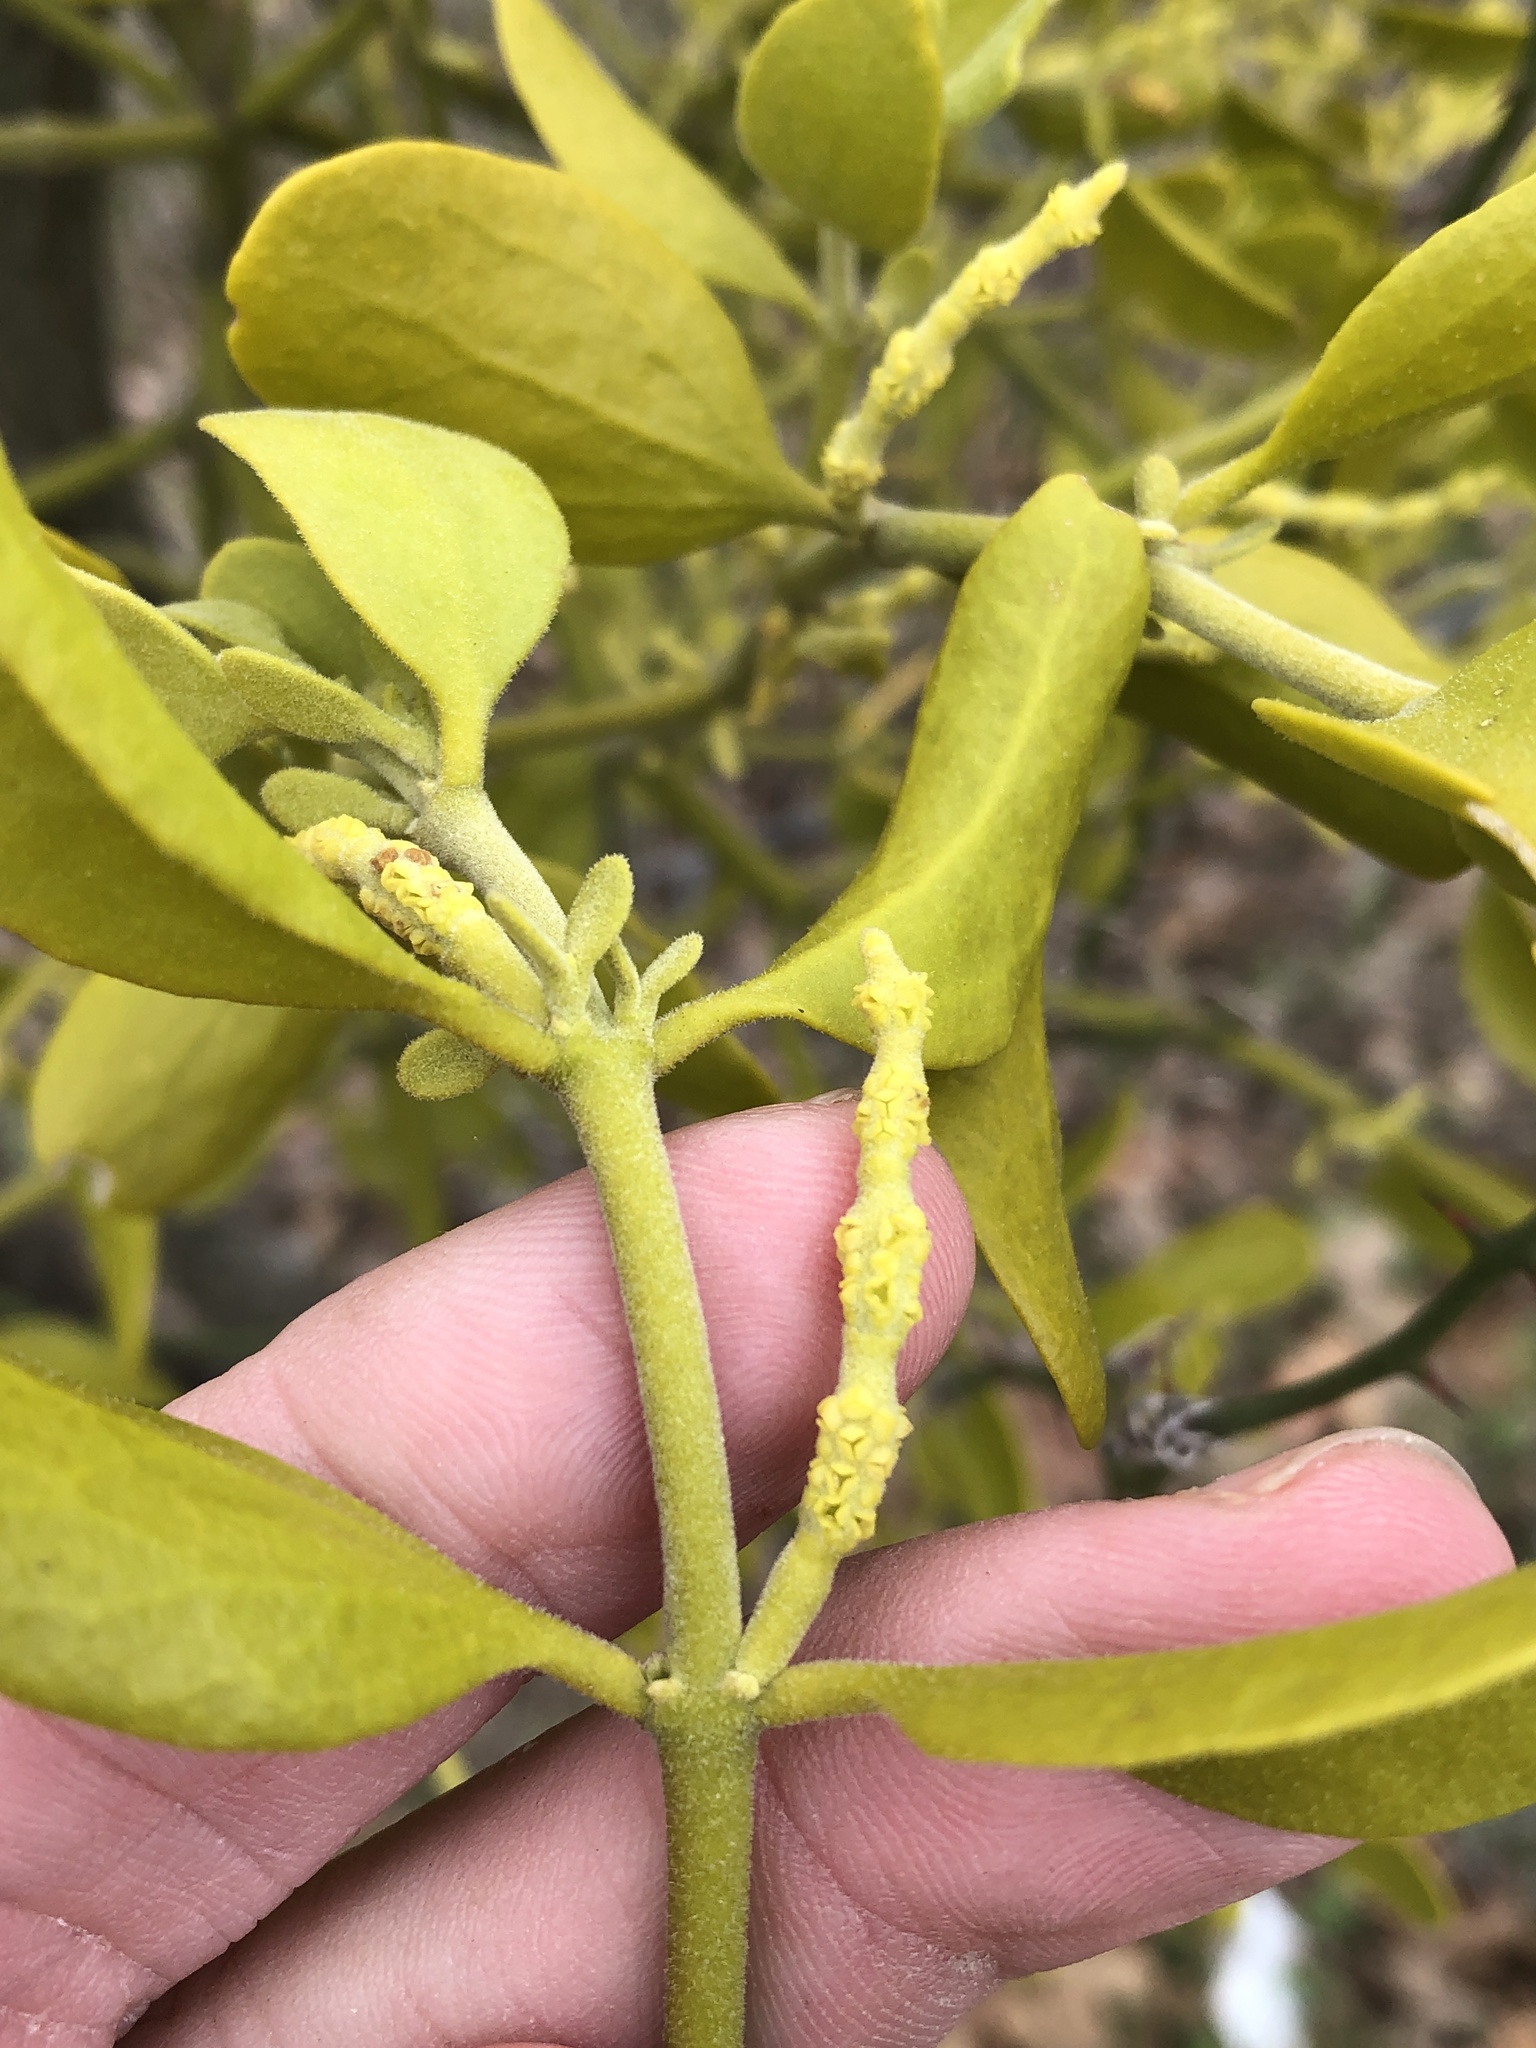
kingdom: Plantae
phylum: Tracheophyta
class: Magnoliopsida
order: Santalales
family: Viscaceae
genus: Phoradendron
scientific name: Phoradendron leucarpum
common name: Pacific mistletoe
